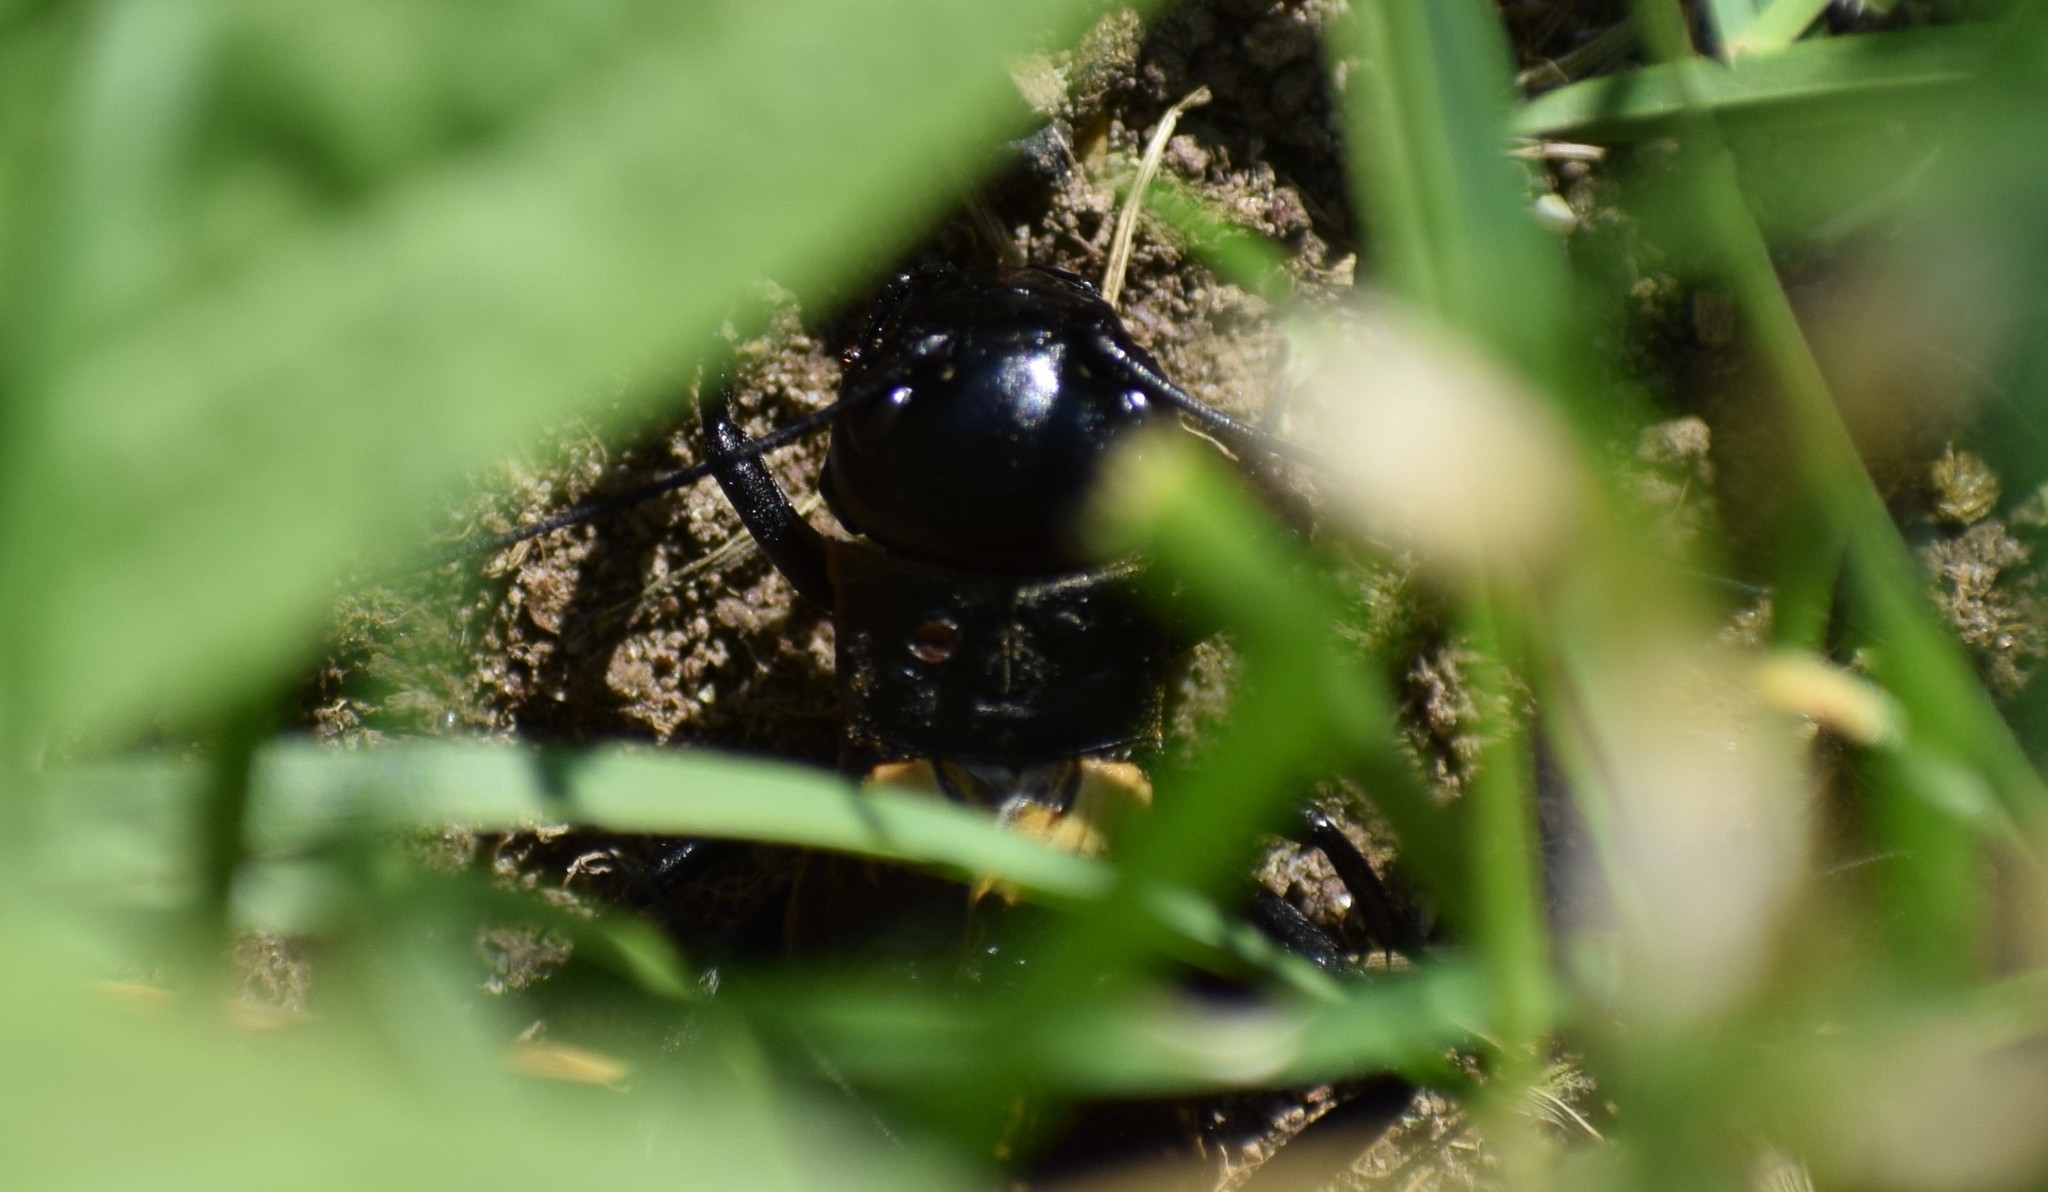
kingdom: Animalia
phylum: Arthropoda
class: Insecta
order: Orthoptera
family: Gryllidae
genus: Gryllus
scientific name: Gryllus campestris
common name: Field cricket
